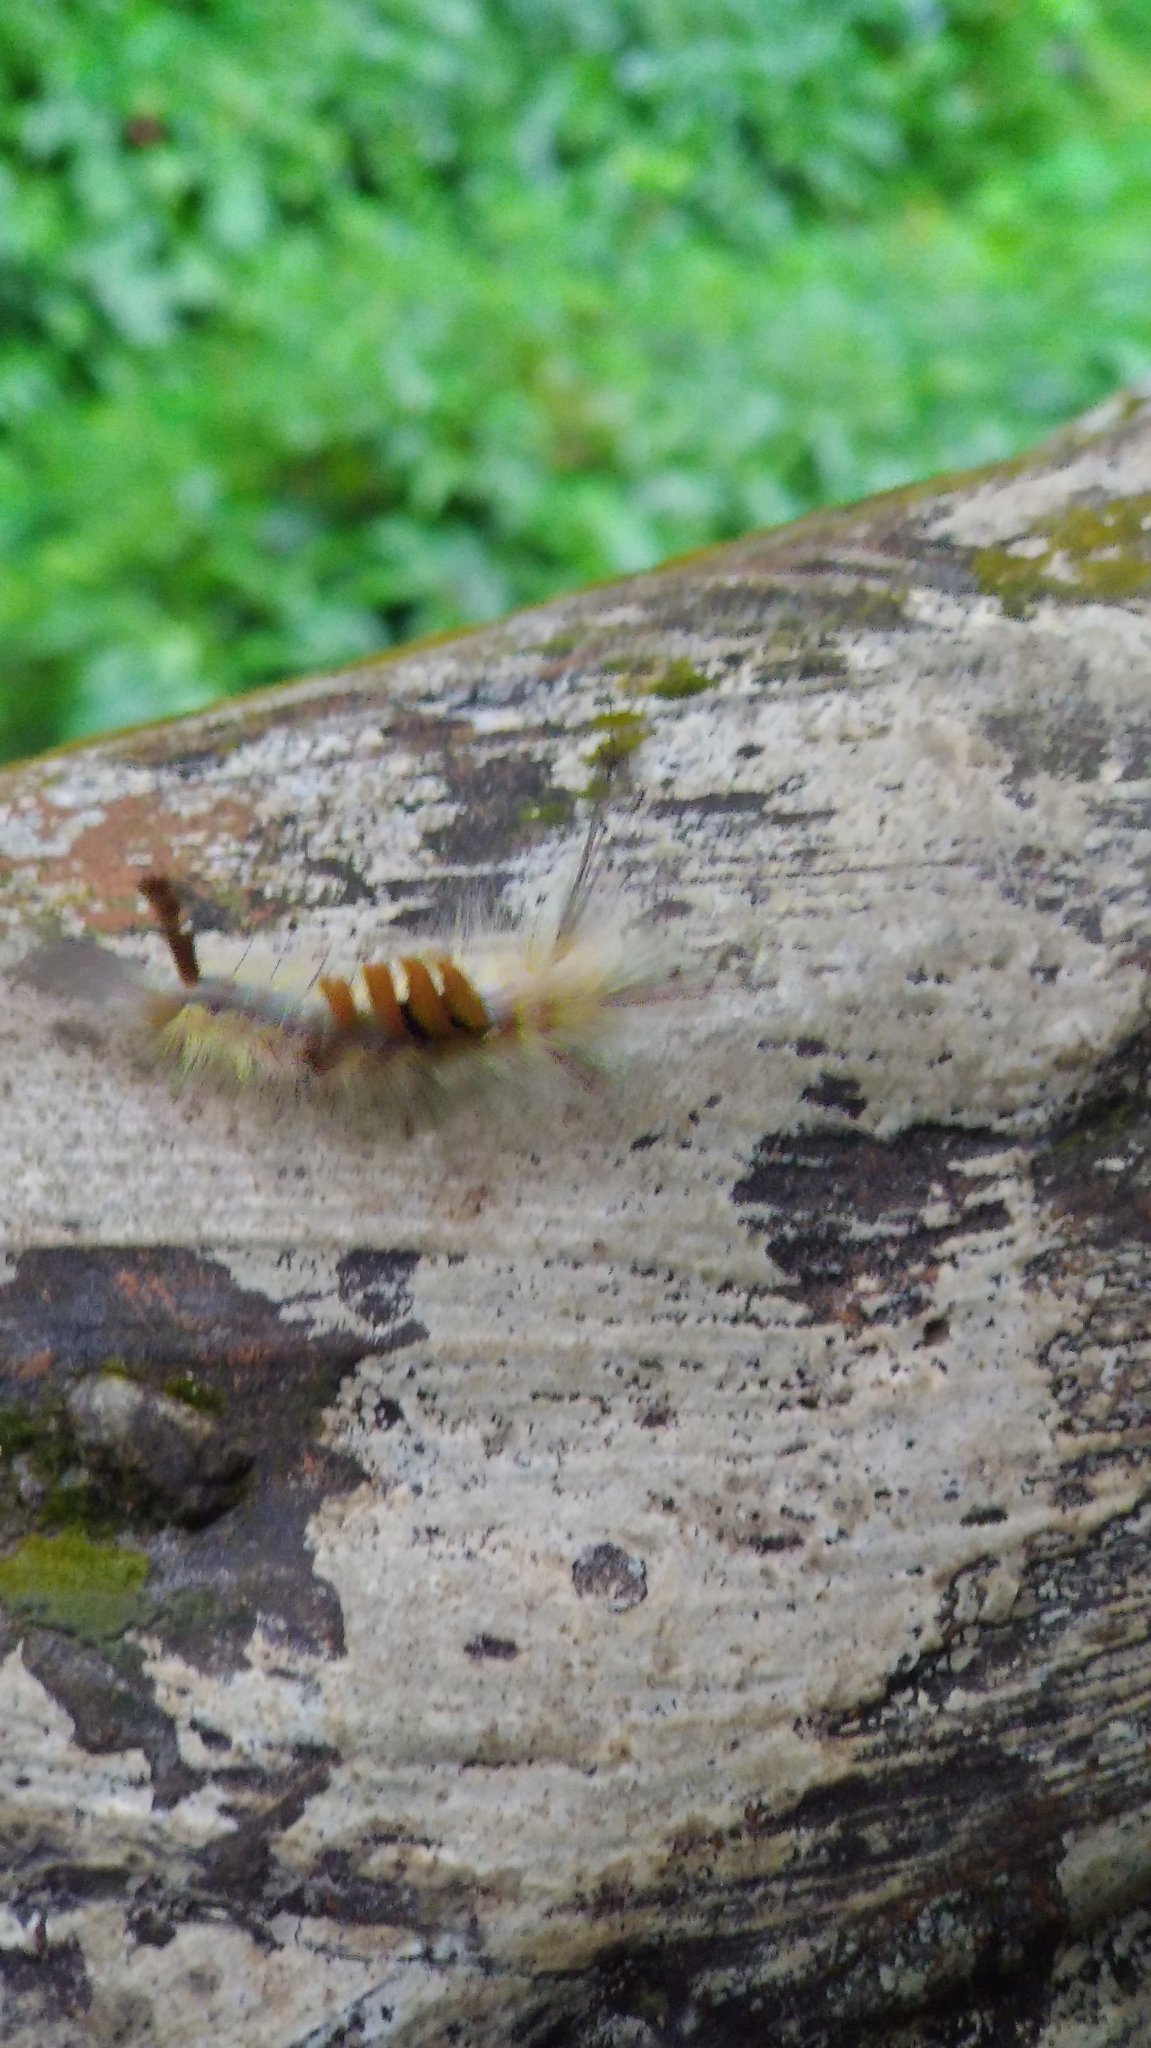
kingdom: Animalia
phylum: Arthropoda
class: Insecta
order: Lepidoptera
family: Erebidae
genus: Olene
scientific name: Olene dudgeoni
